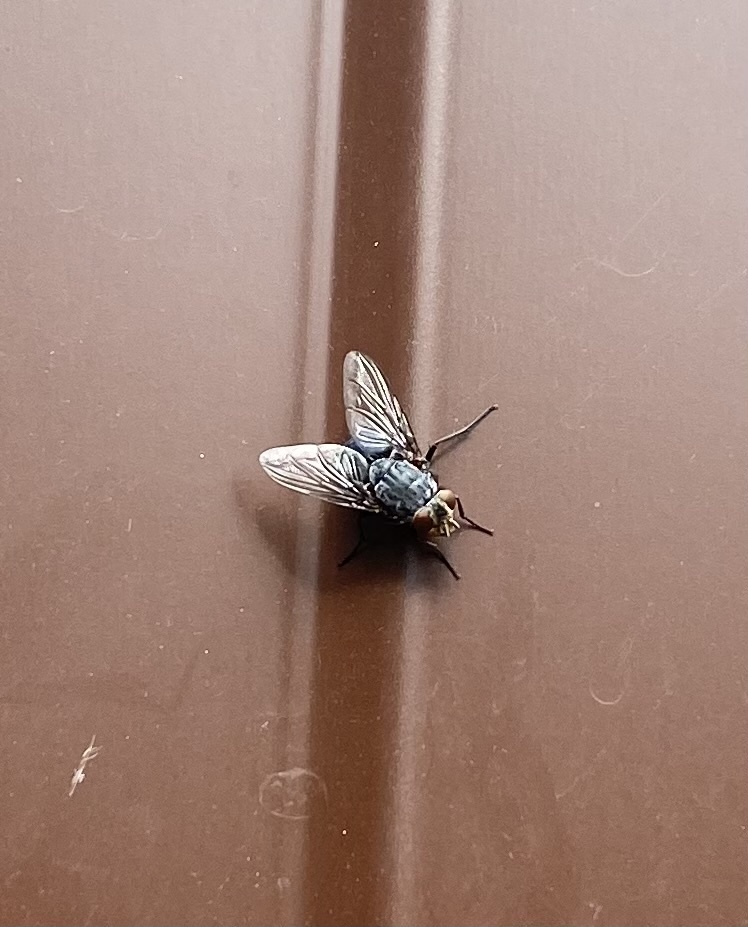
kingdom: Animalia
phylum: Arthropoda
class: Insecta
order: Diptera
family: Calliphoridae
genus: Calliphora
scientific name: Calliphora
